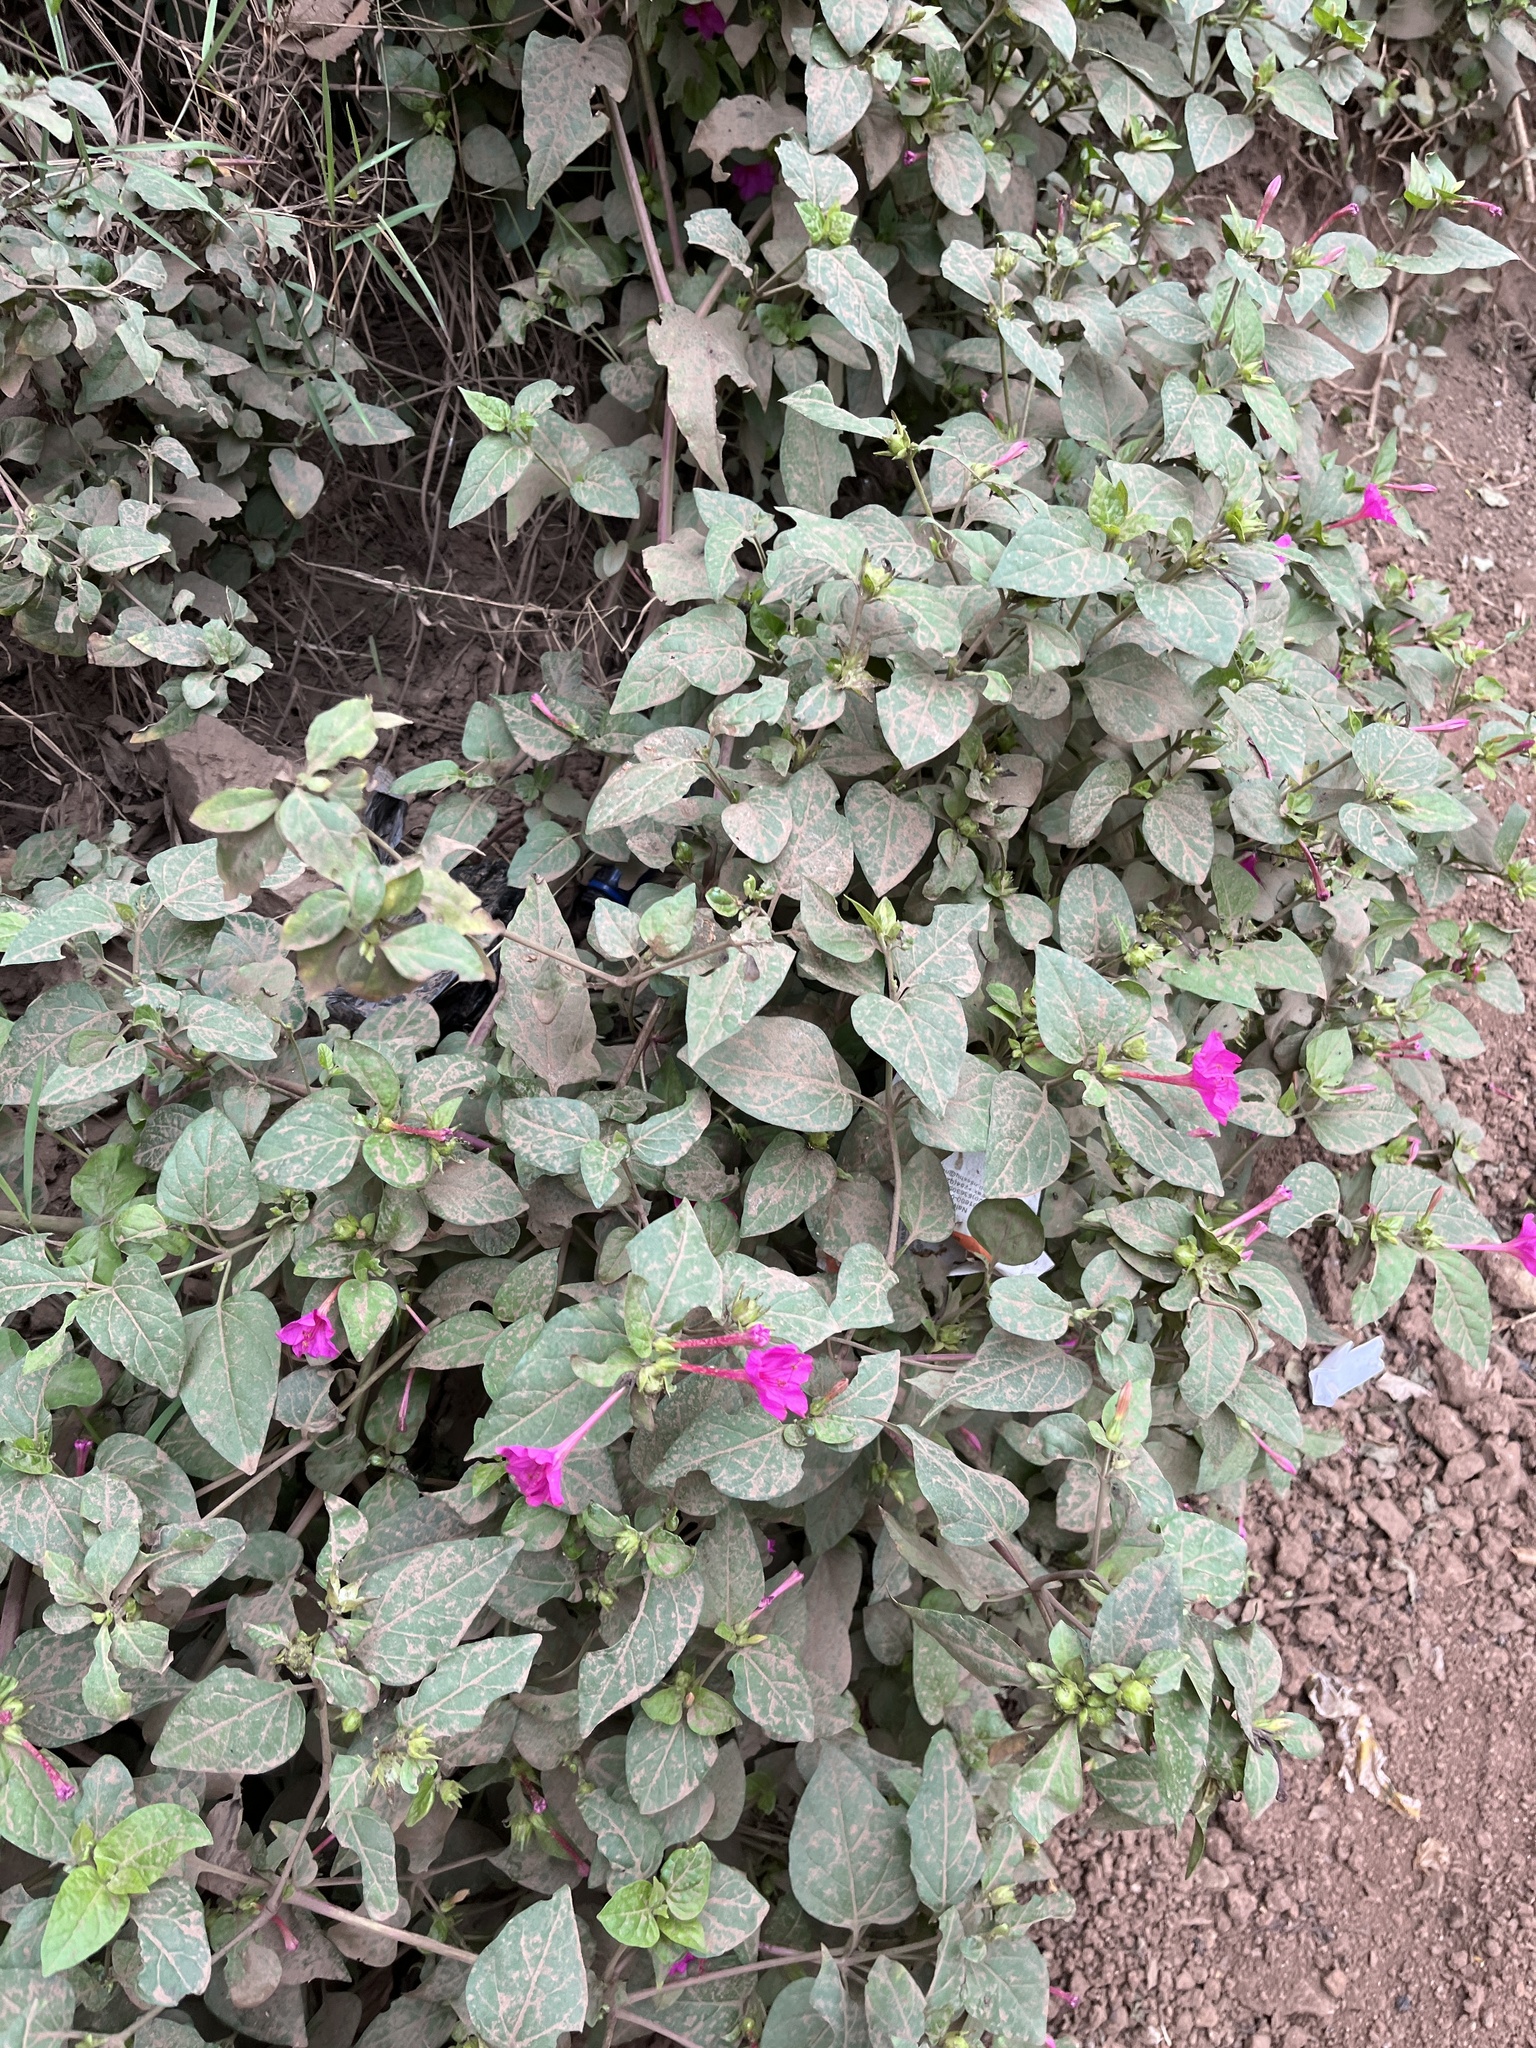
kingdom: Plantae
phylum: Tracheophyta
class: Magnoliopsida
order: Caryophyllales
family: Nyctaginaceae
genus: Mirabilis
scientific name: Mirabilis jalapa
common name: Marvel-of-peru
